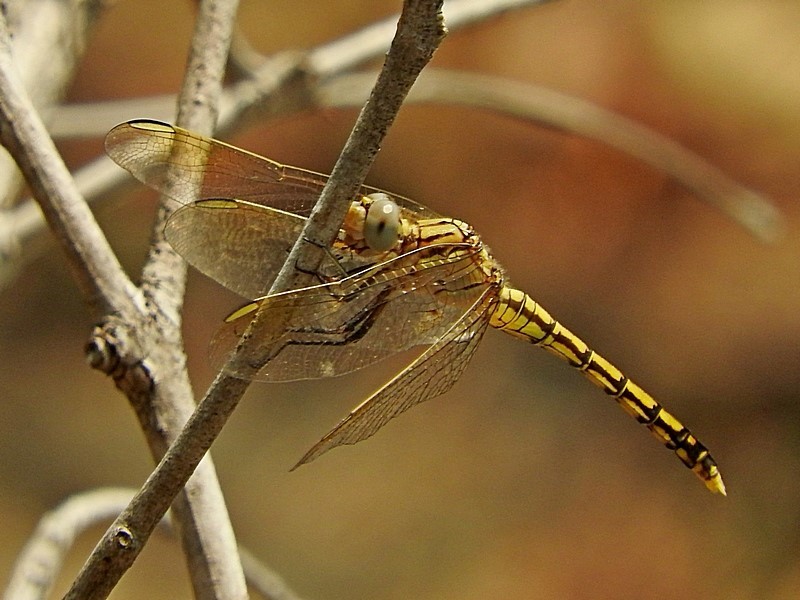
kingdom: Animalia
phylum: Arthropoda
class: Insecta
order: Odonata
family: Libellulidae
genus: Orthetrum
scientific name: Orthetrum caledonicum
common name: Blue skimmer
